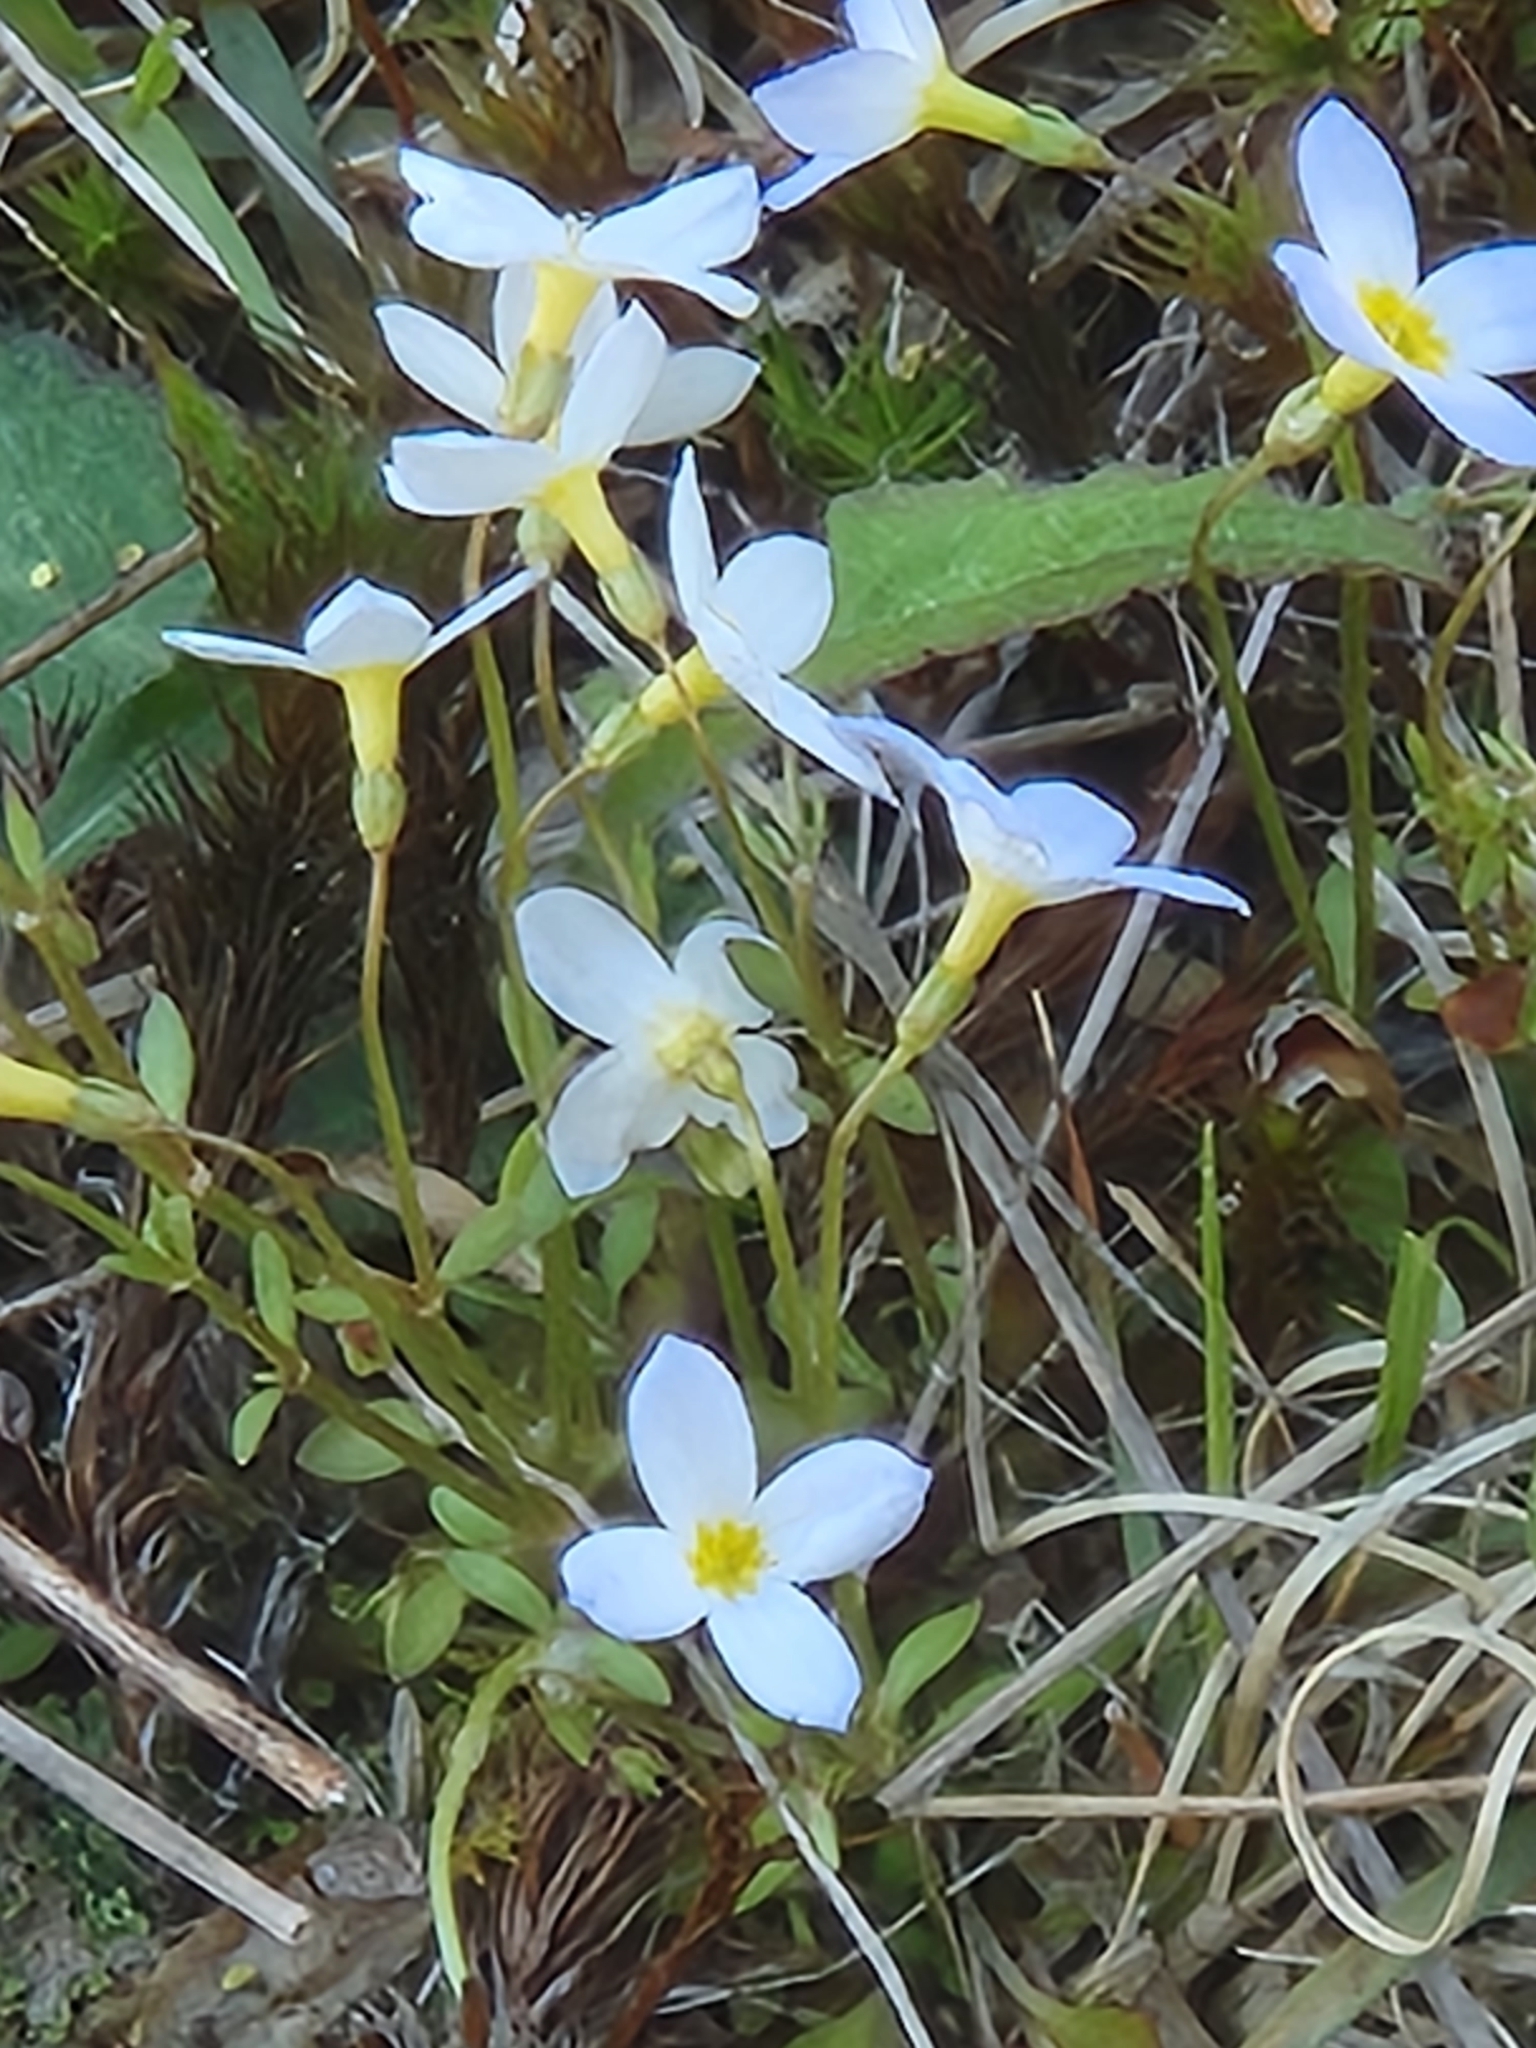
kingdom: Plantae
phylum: Tracheophyta
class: Magnoliopsida
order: Gentianales
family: Rubiaceae
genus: Houstonia
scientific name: Houstonia caerulea
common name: Bluets
